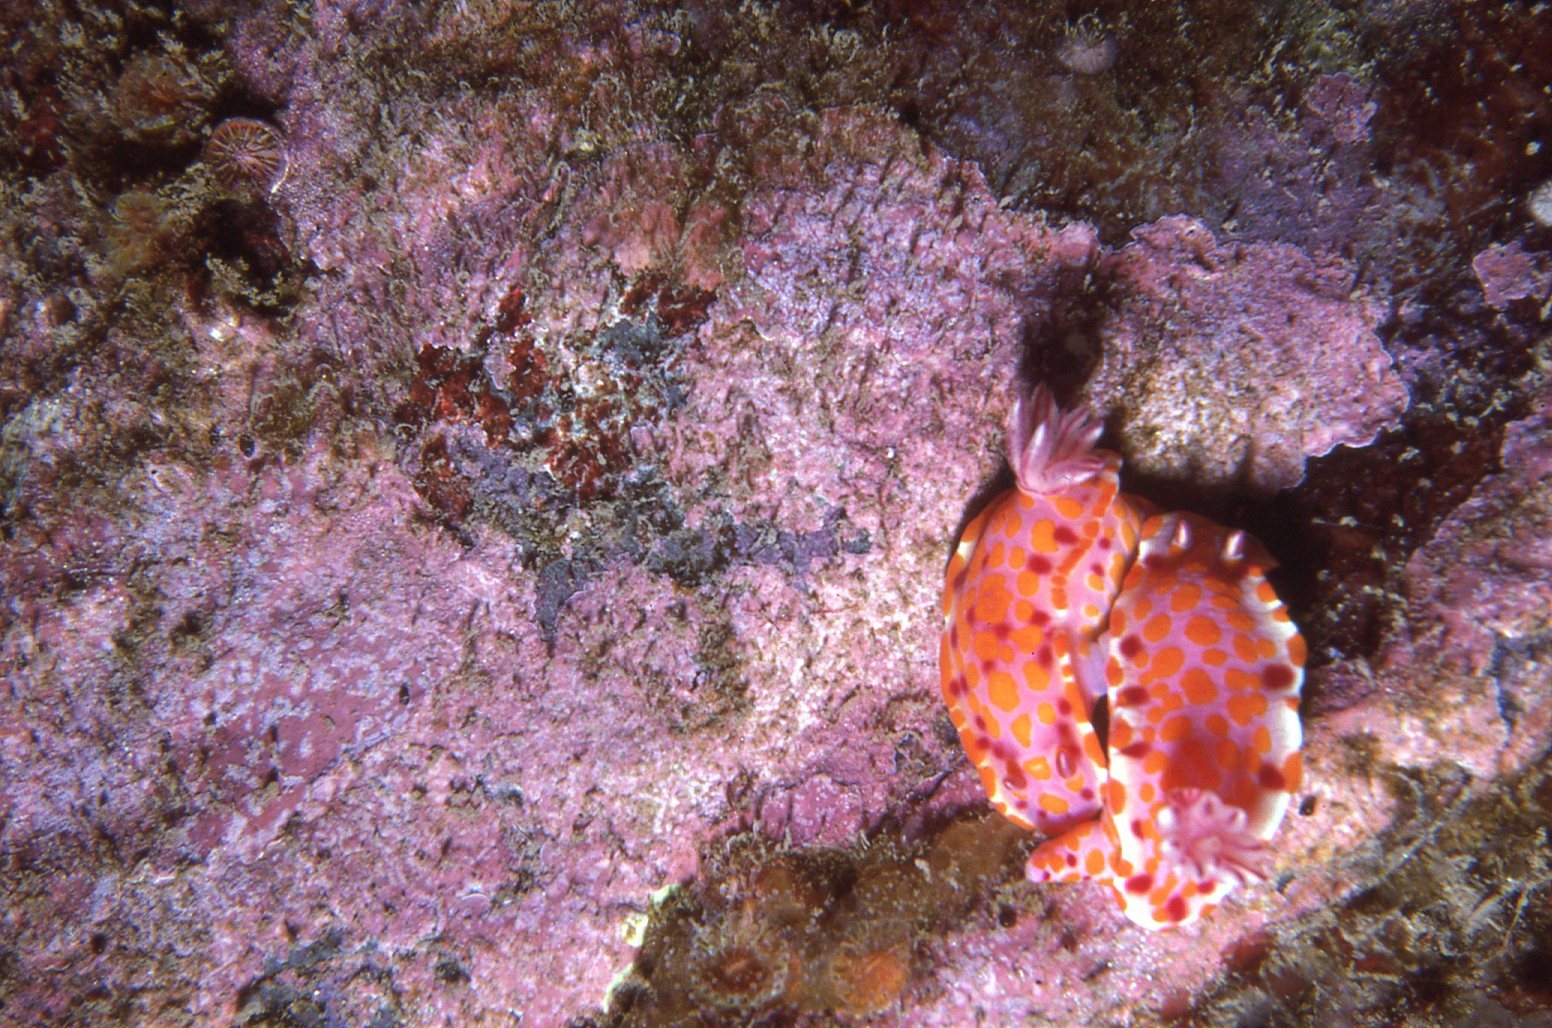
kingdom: Animalia
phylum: Mollusca
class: Gastropoda
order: Nudibranchia
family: Chromodorididae
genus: Ceratosoma
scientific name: Ceratosoma amoenum
